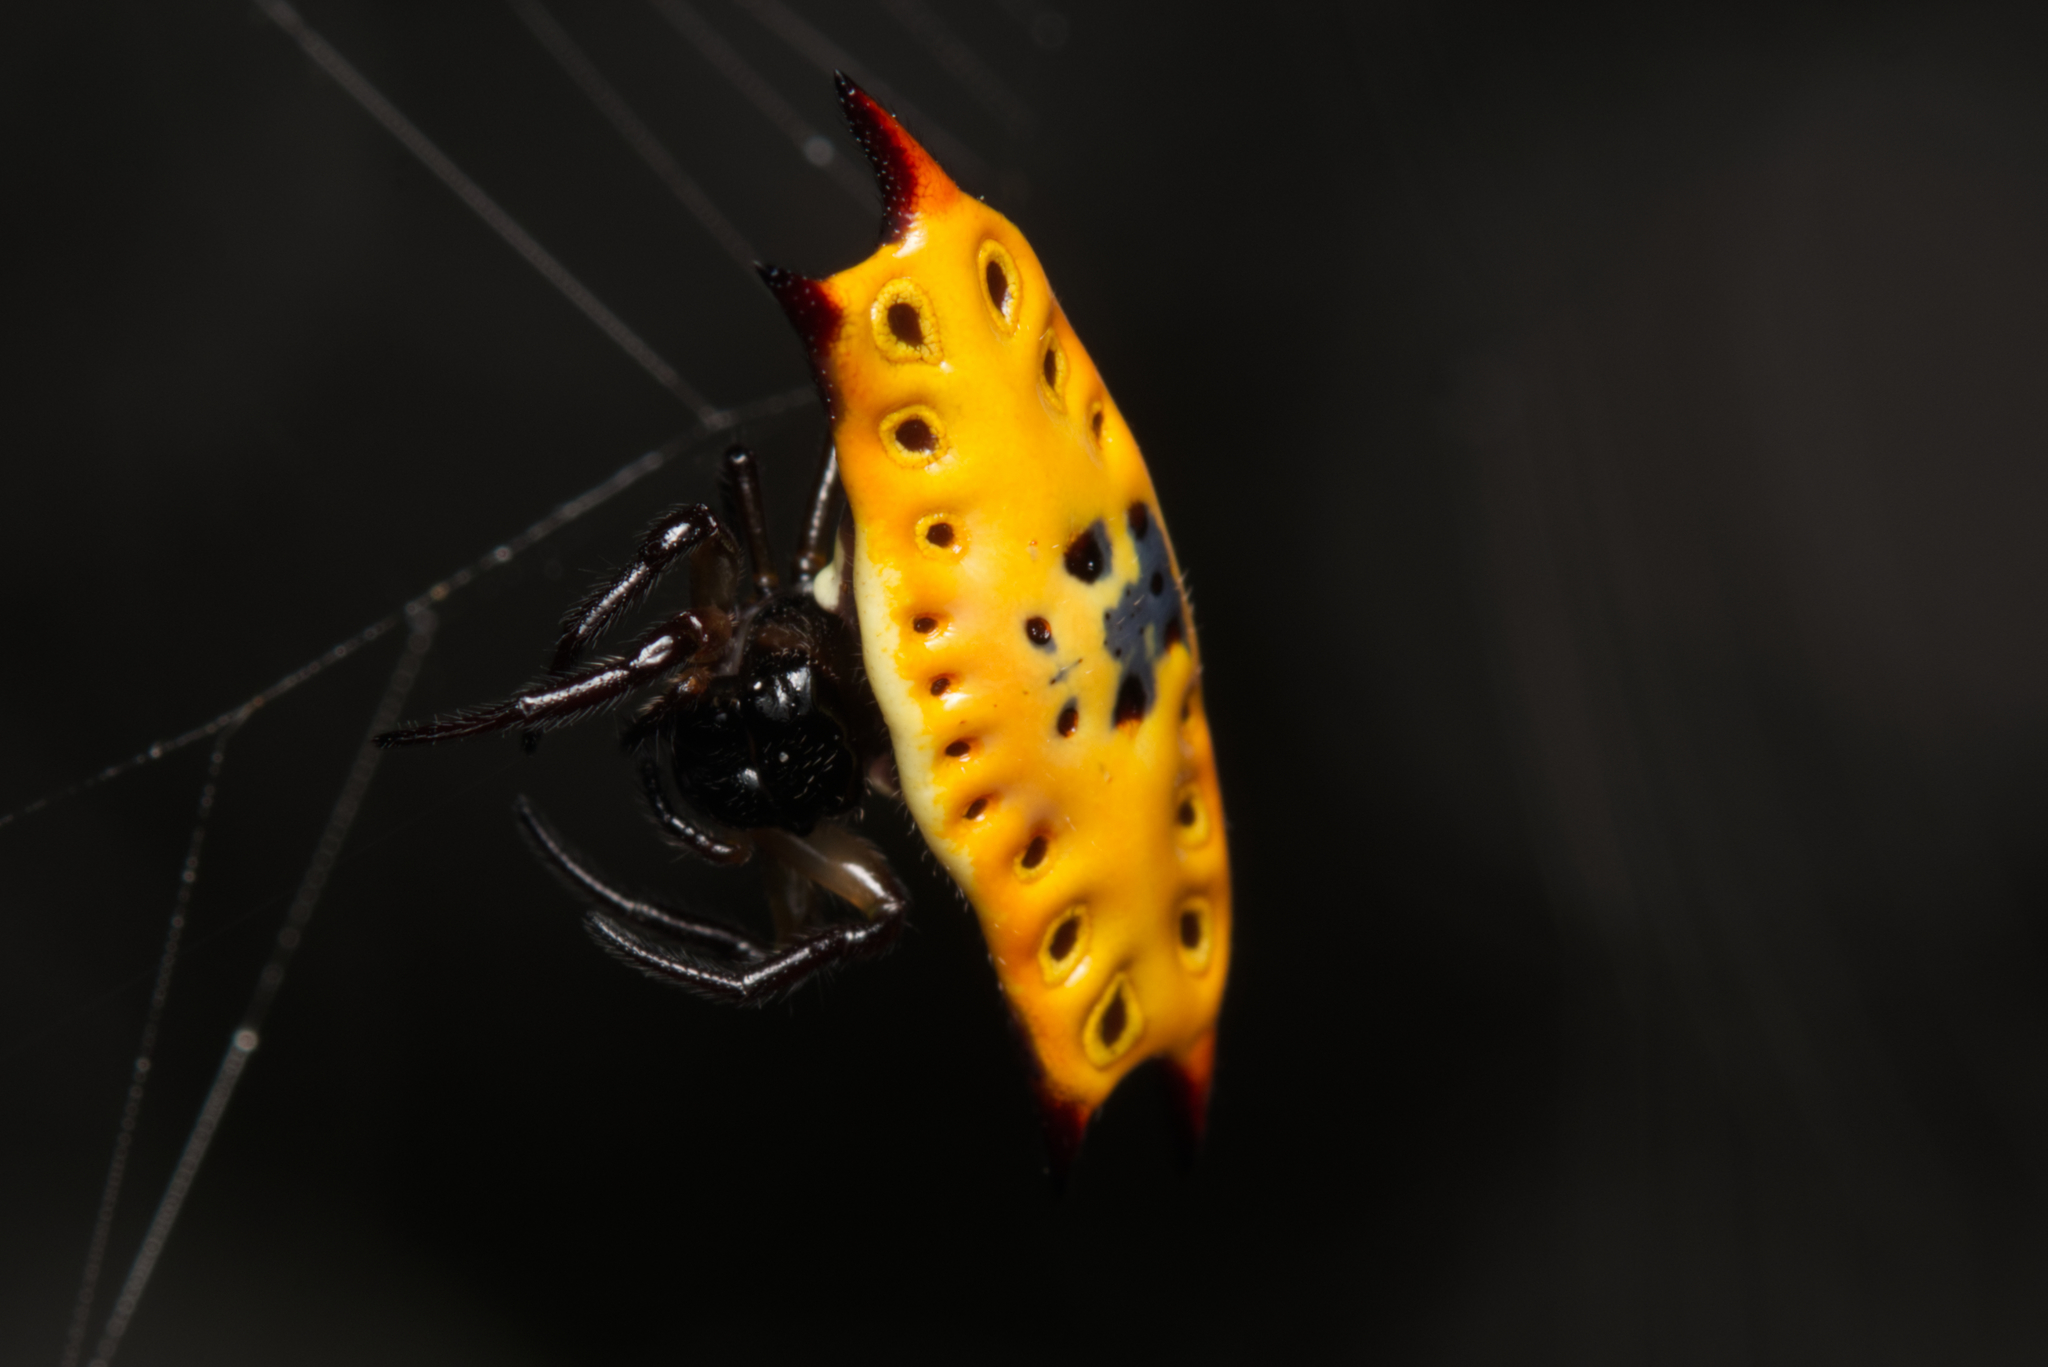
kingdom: Animalia
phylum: Arthropoda
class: Arachnida
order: Araneae
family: Araneidae
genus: Gasteracantha
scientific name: Gasteracantha quadrispinosa
